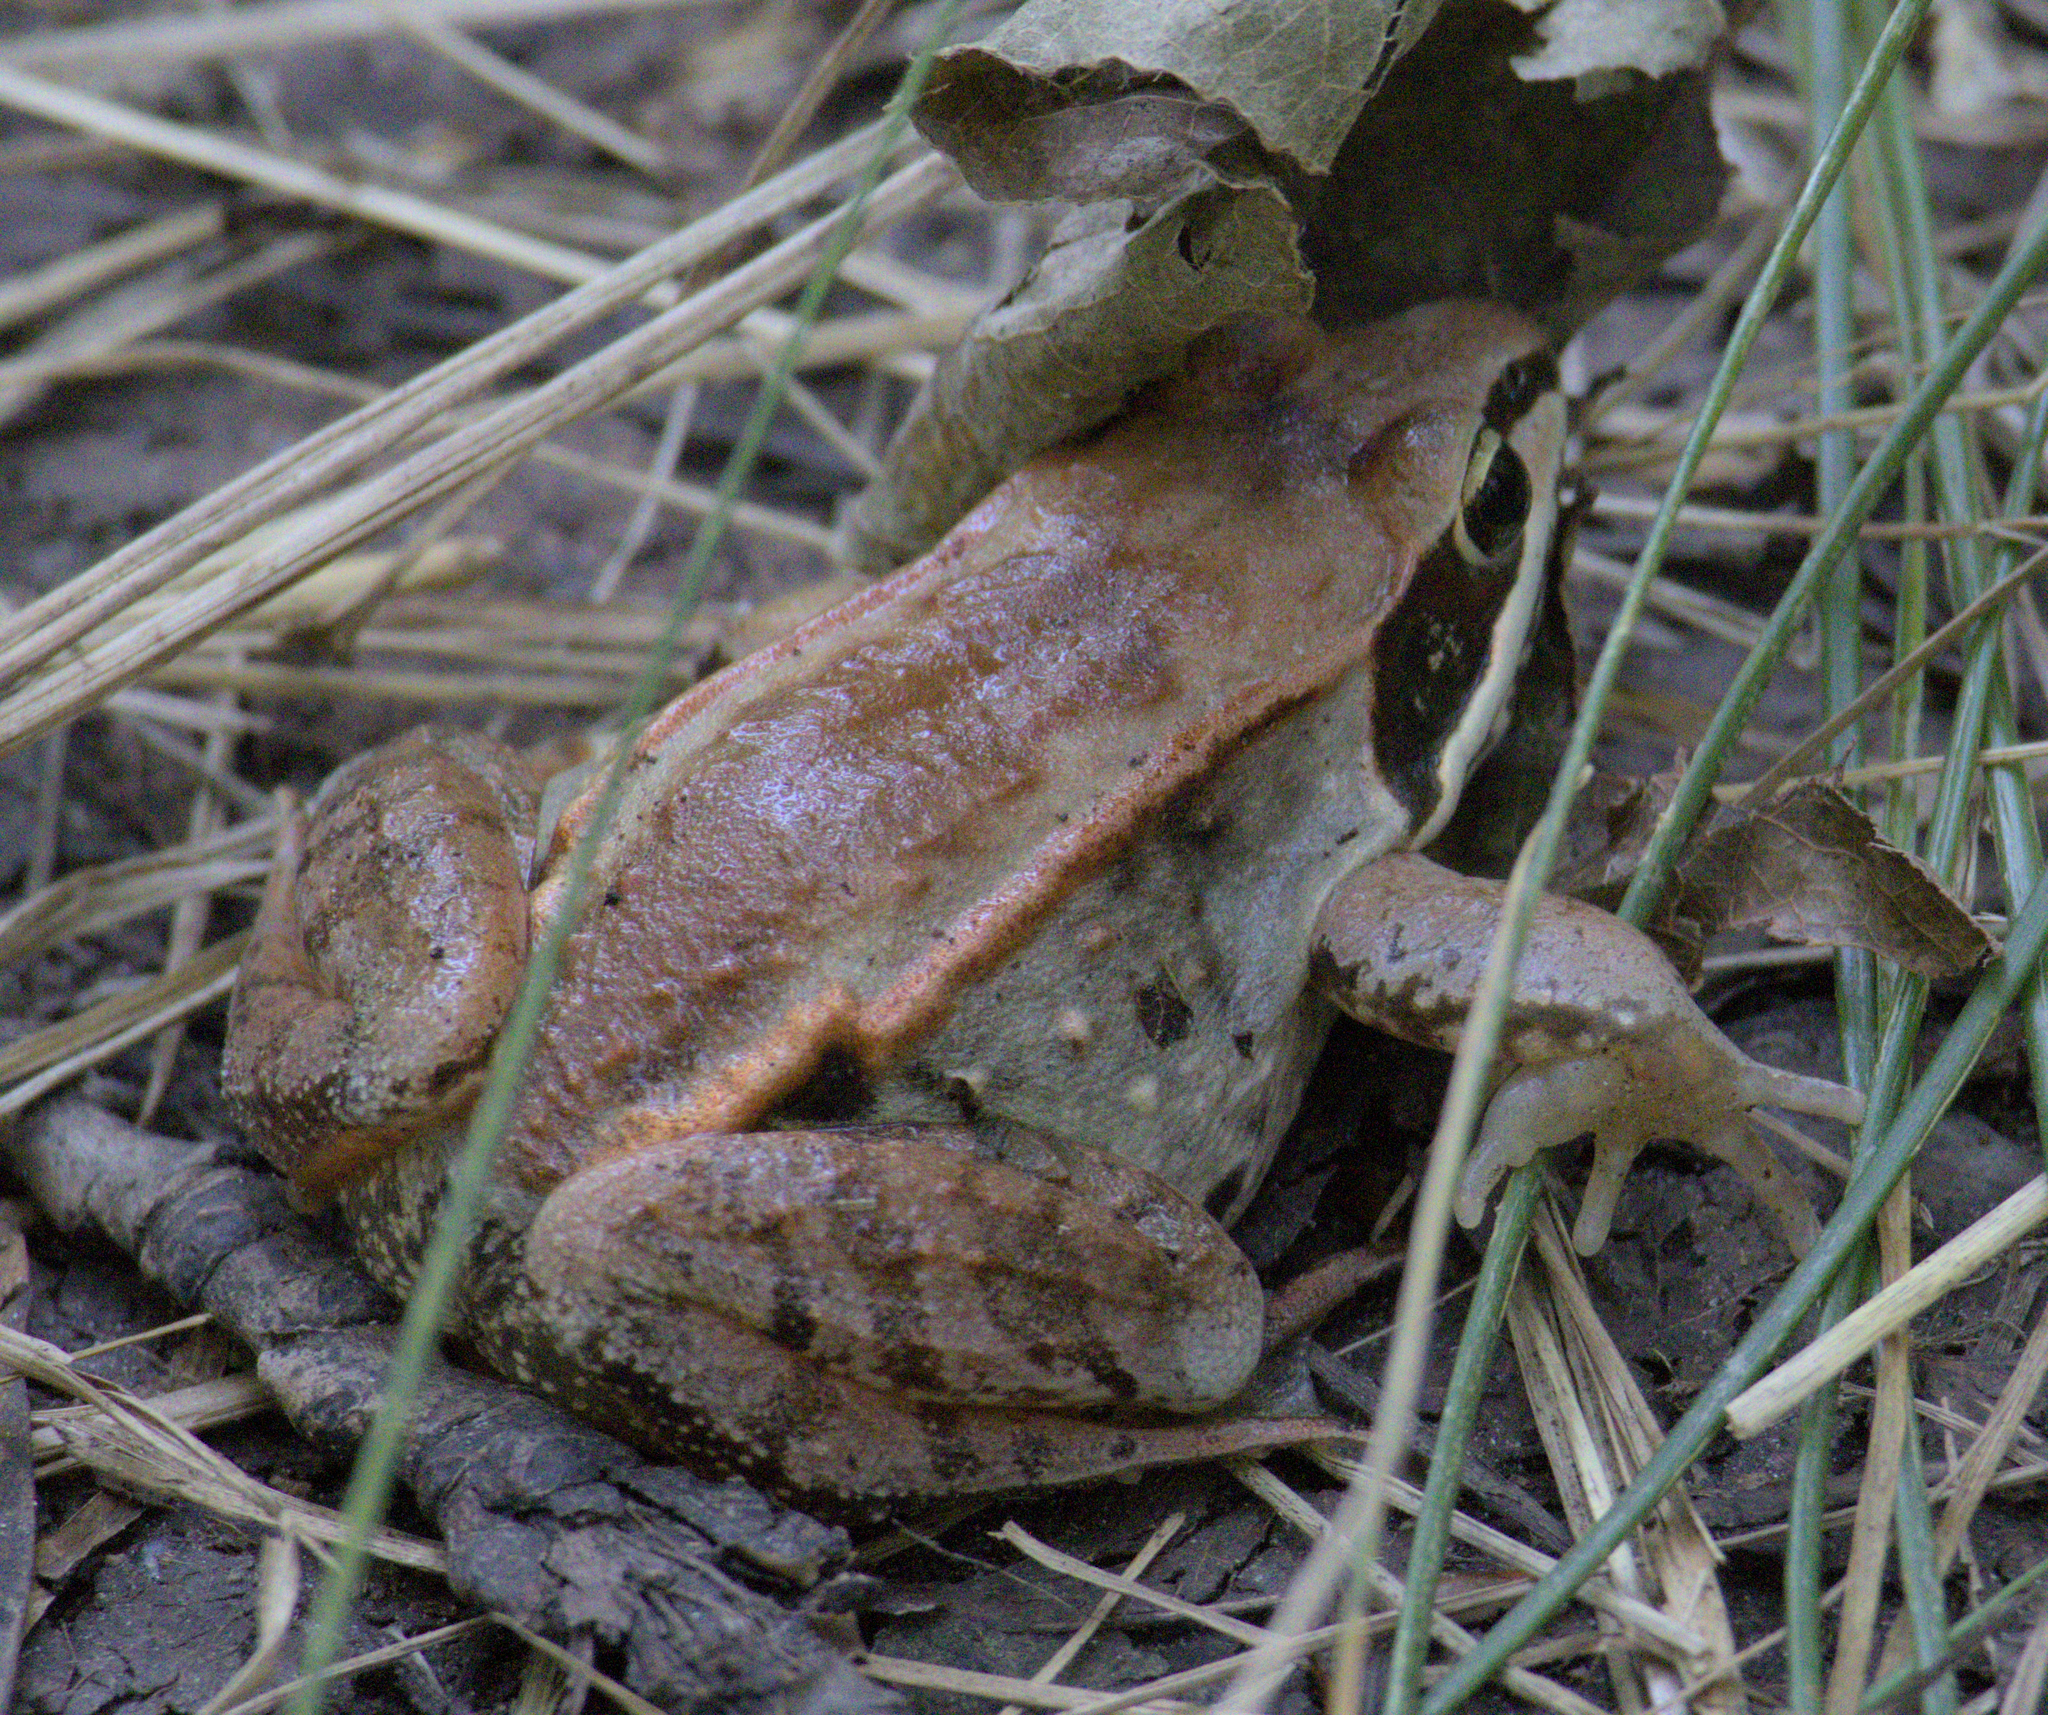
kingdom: Animalia
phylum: Chordata
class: Amphibia
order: Anura
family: Ranidae
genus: Lithobates
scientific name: Lithobates sylvaticus
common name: Wood frog
